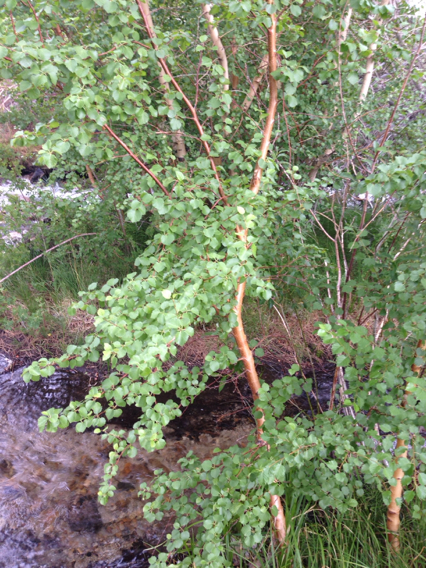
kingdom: Plantae
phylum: Tracheophyta
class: Magnoliopsida
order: Fagales
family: Betulaceae
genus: Betula
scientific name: Betula occidentalis
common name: River birch
